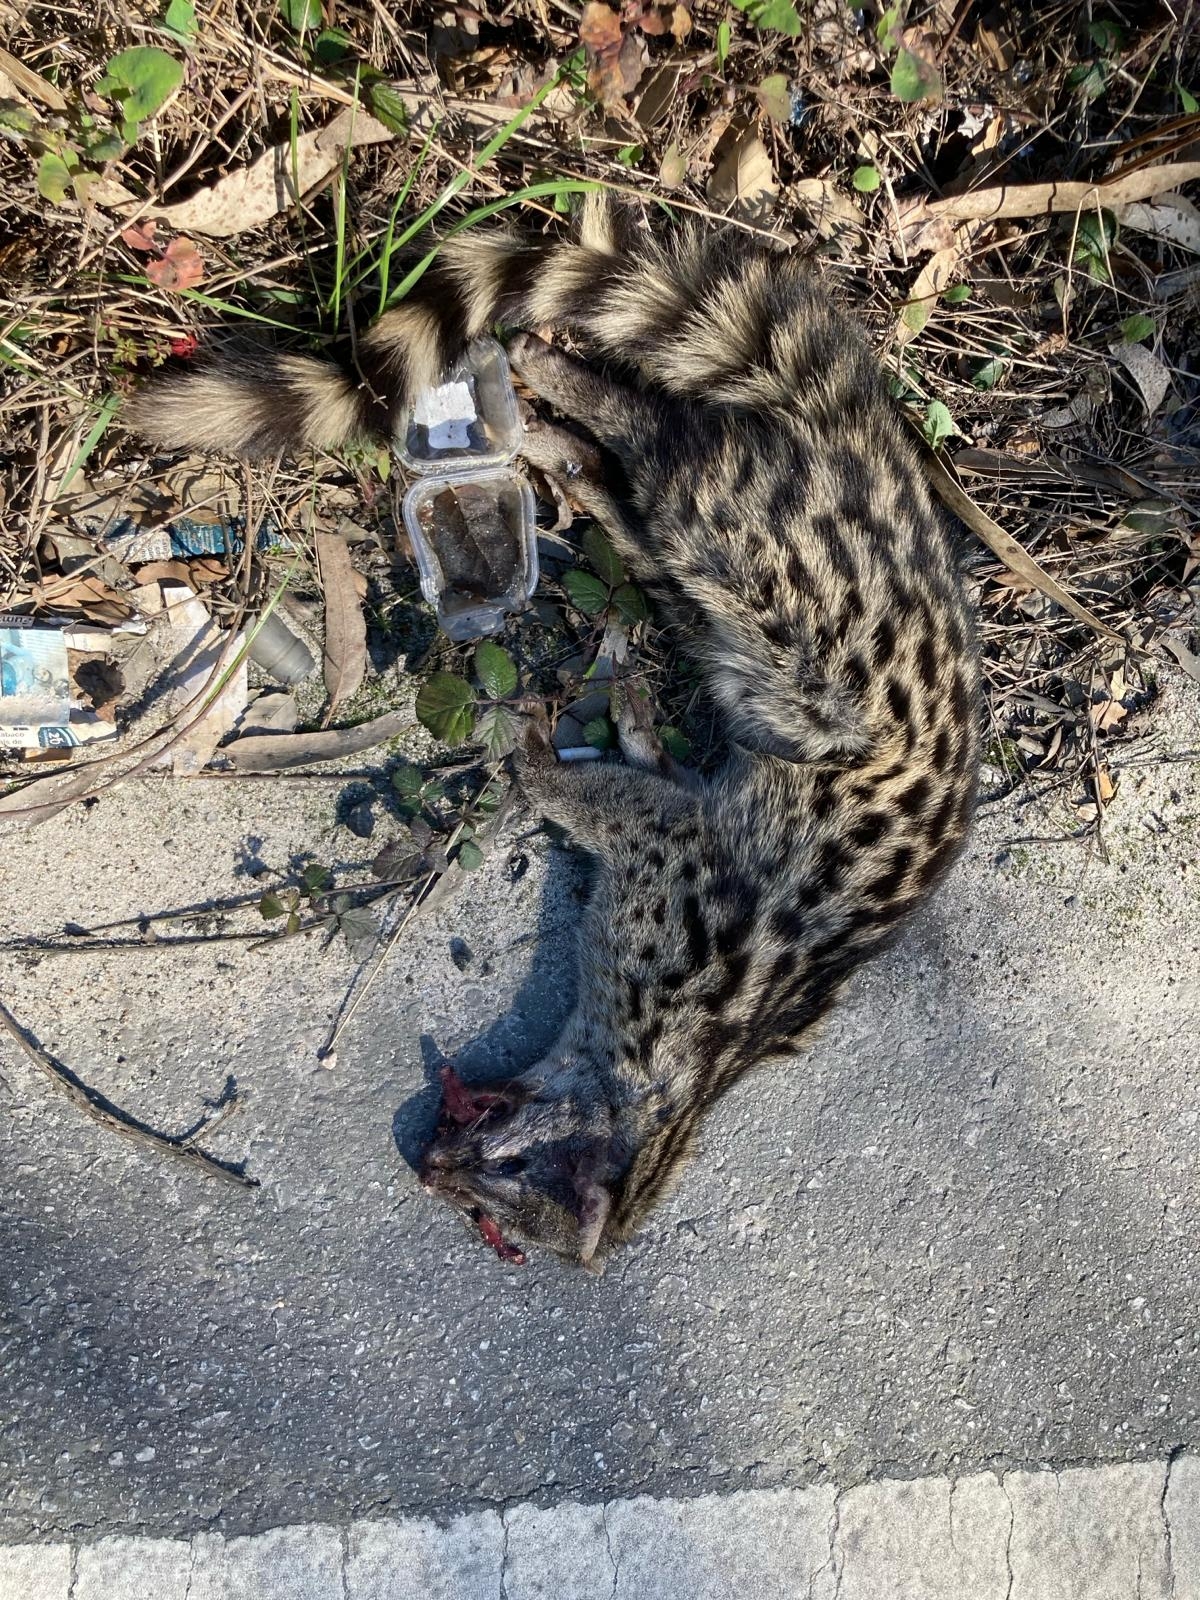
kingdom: Animalia
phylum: Chordata
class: Mammalia
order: Carnivora
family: Viverridae
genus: Genetta
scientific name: Genetta genetta
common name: Common genet
